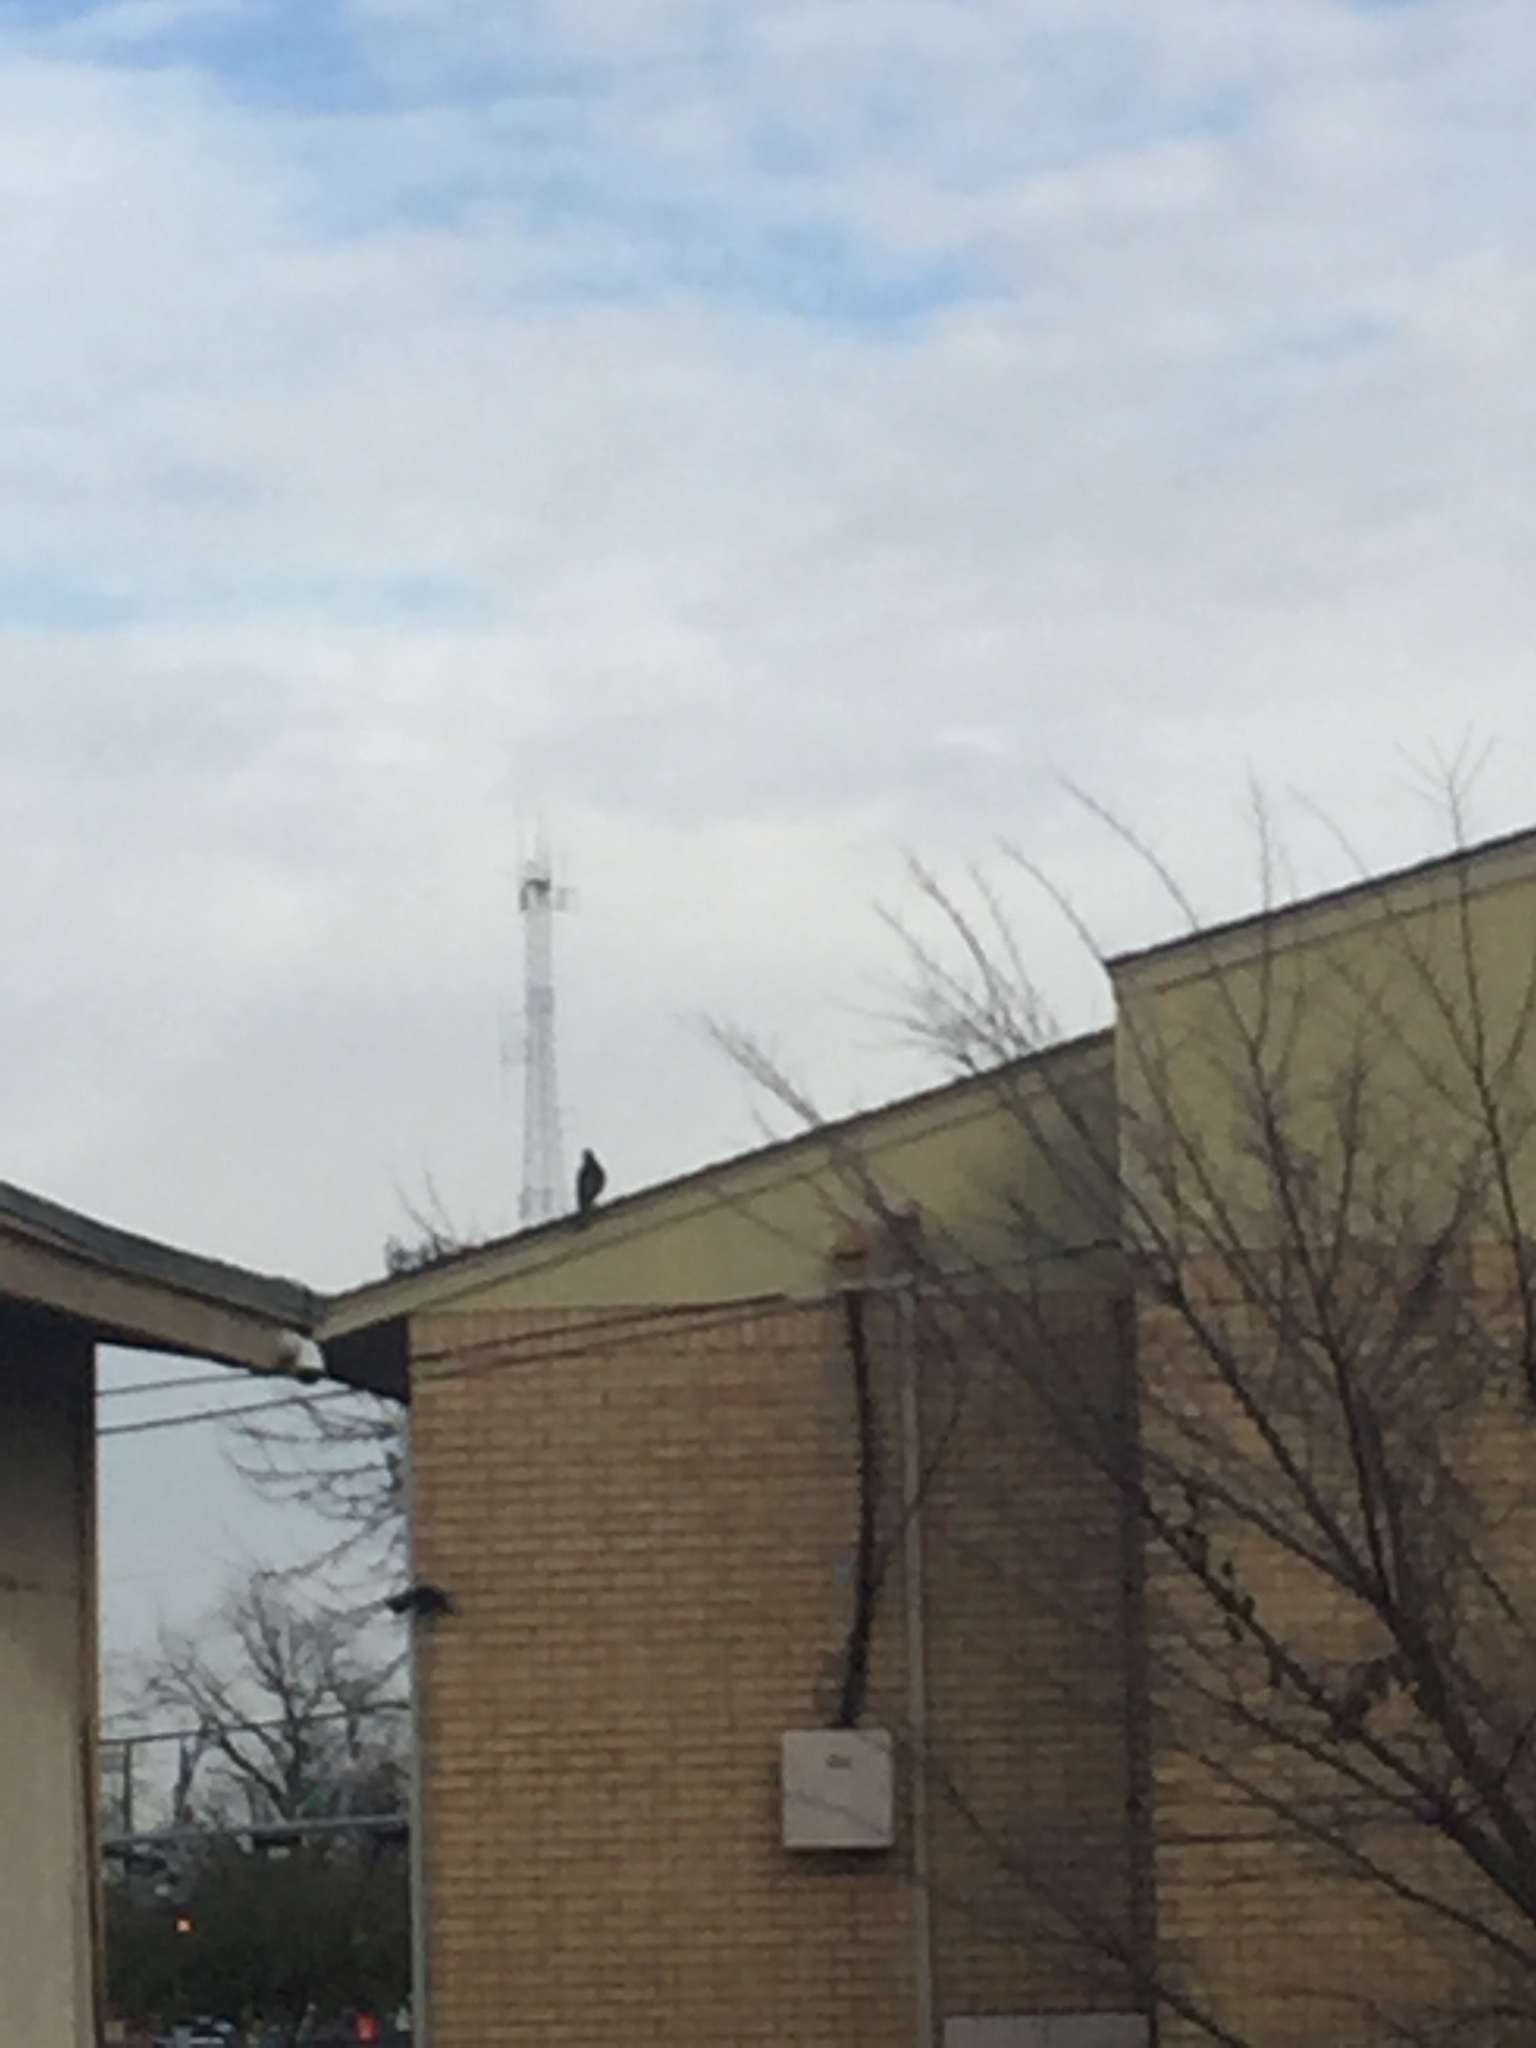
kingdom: Animalia
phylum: Chordata
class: Aves
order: Accipitriformes
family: Accipitridae
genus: Accipiter
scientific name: Accipiter
